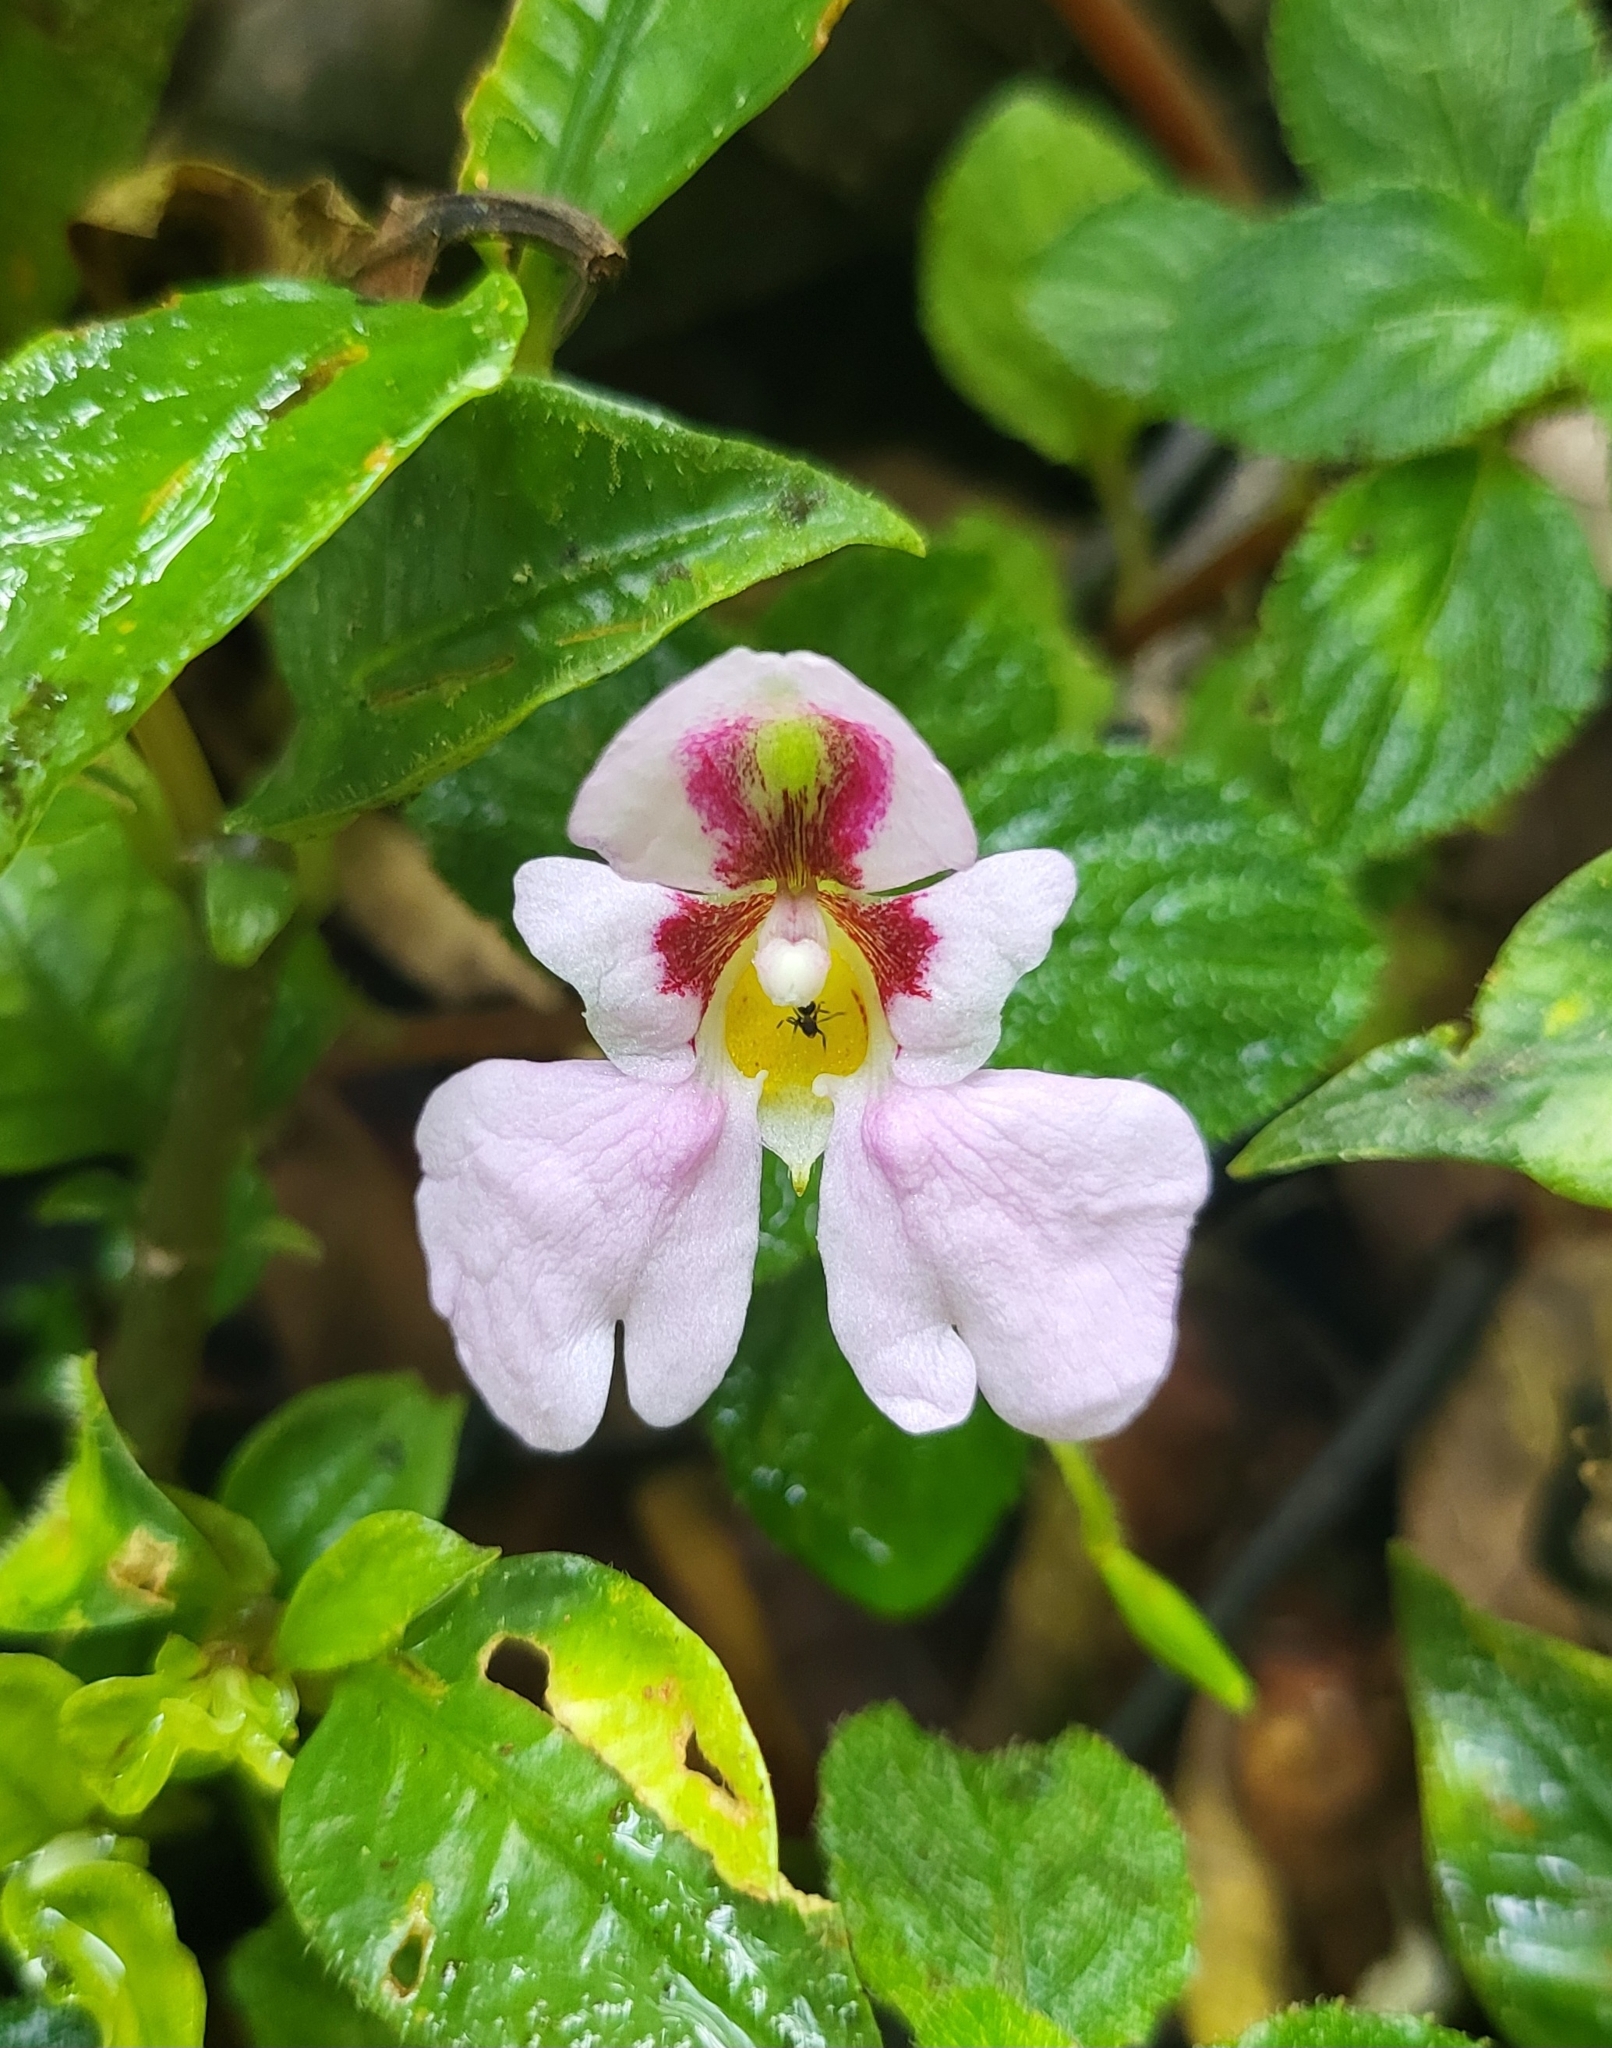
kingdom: Plantae
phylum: Tracheophyta
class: Magnoliopsida
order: Ericales
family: Balsaminaceae
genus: Impatiens
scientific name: Impatiens sidikalangensis
